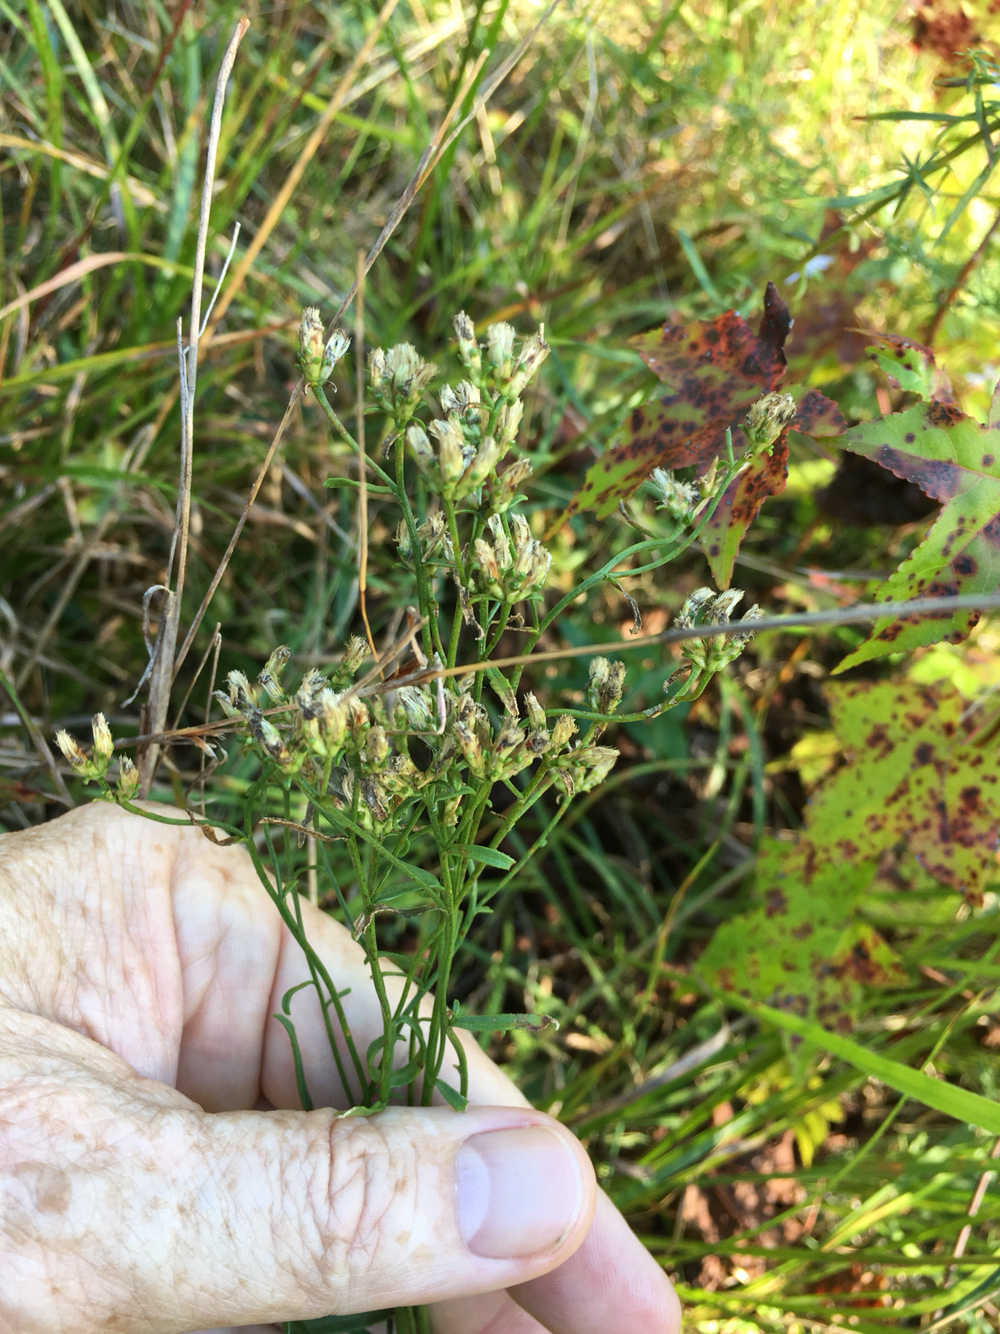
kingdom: Plantae
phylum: Tracheophyta
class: Magnoliopsida
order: Asterales
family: Asteraceae
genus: Sericocarpus
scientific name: Sericocarpus linifolius
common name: Narrow-leaf aster
